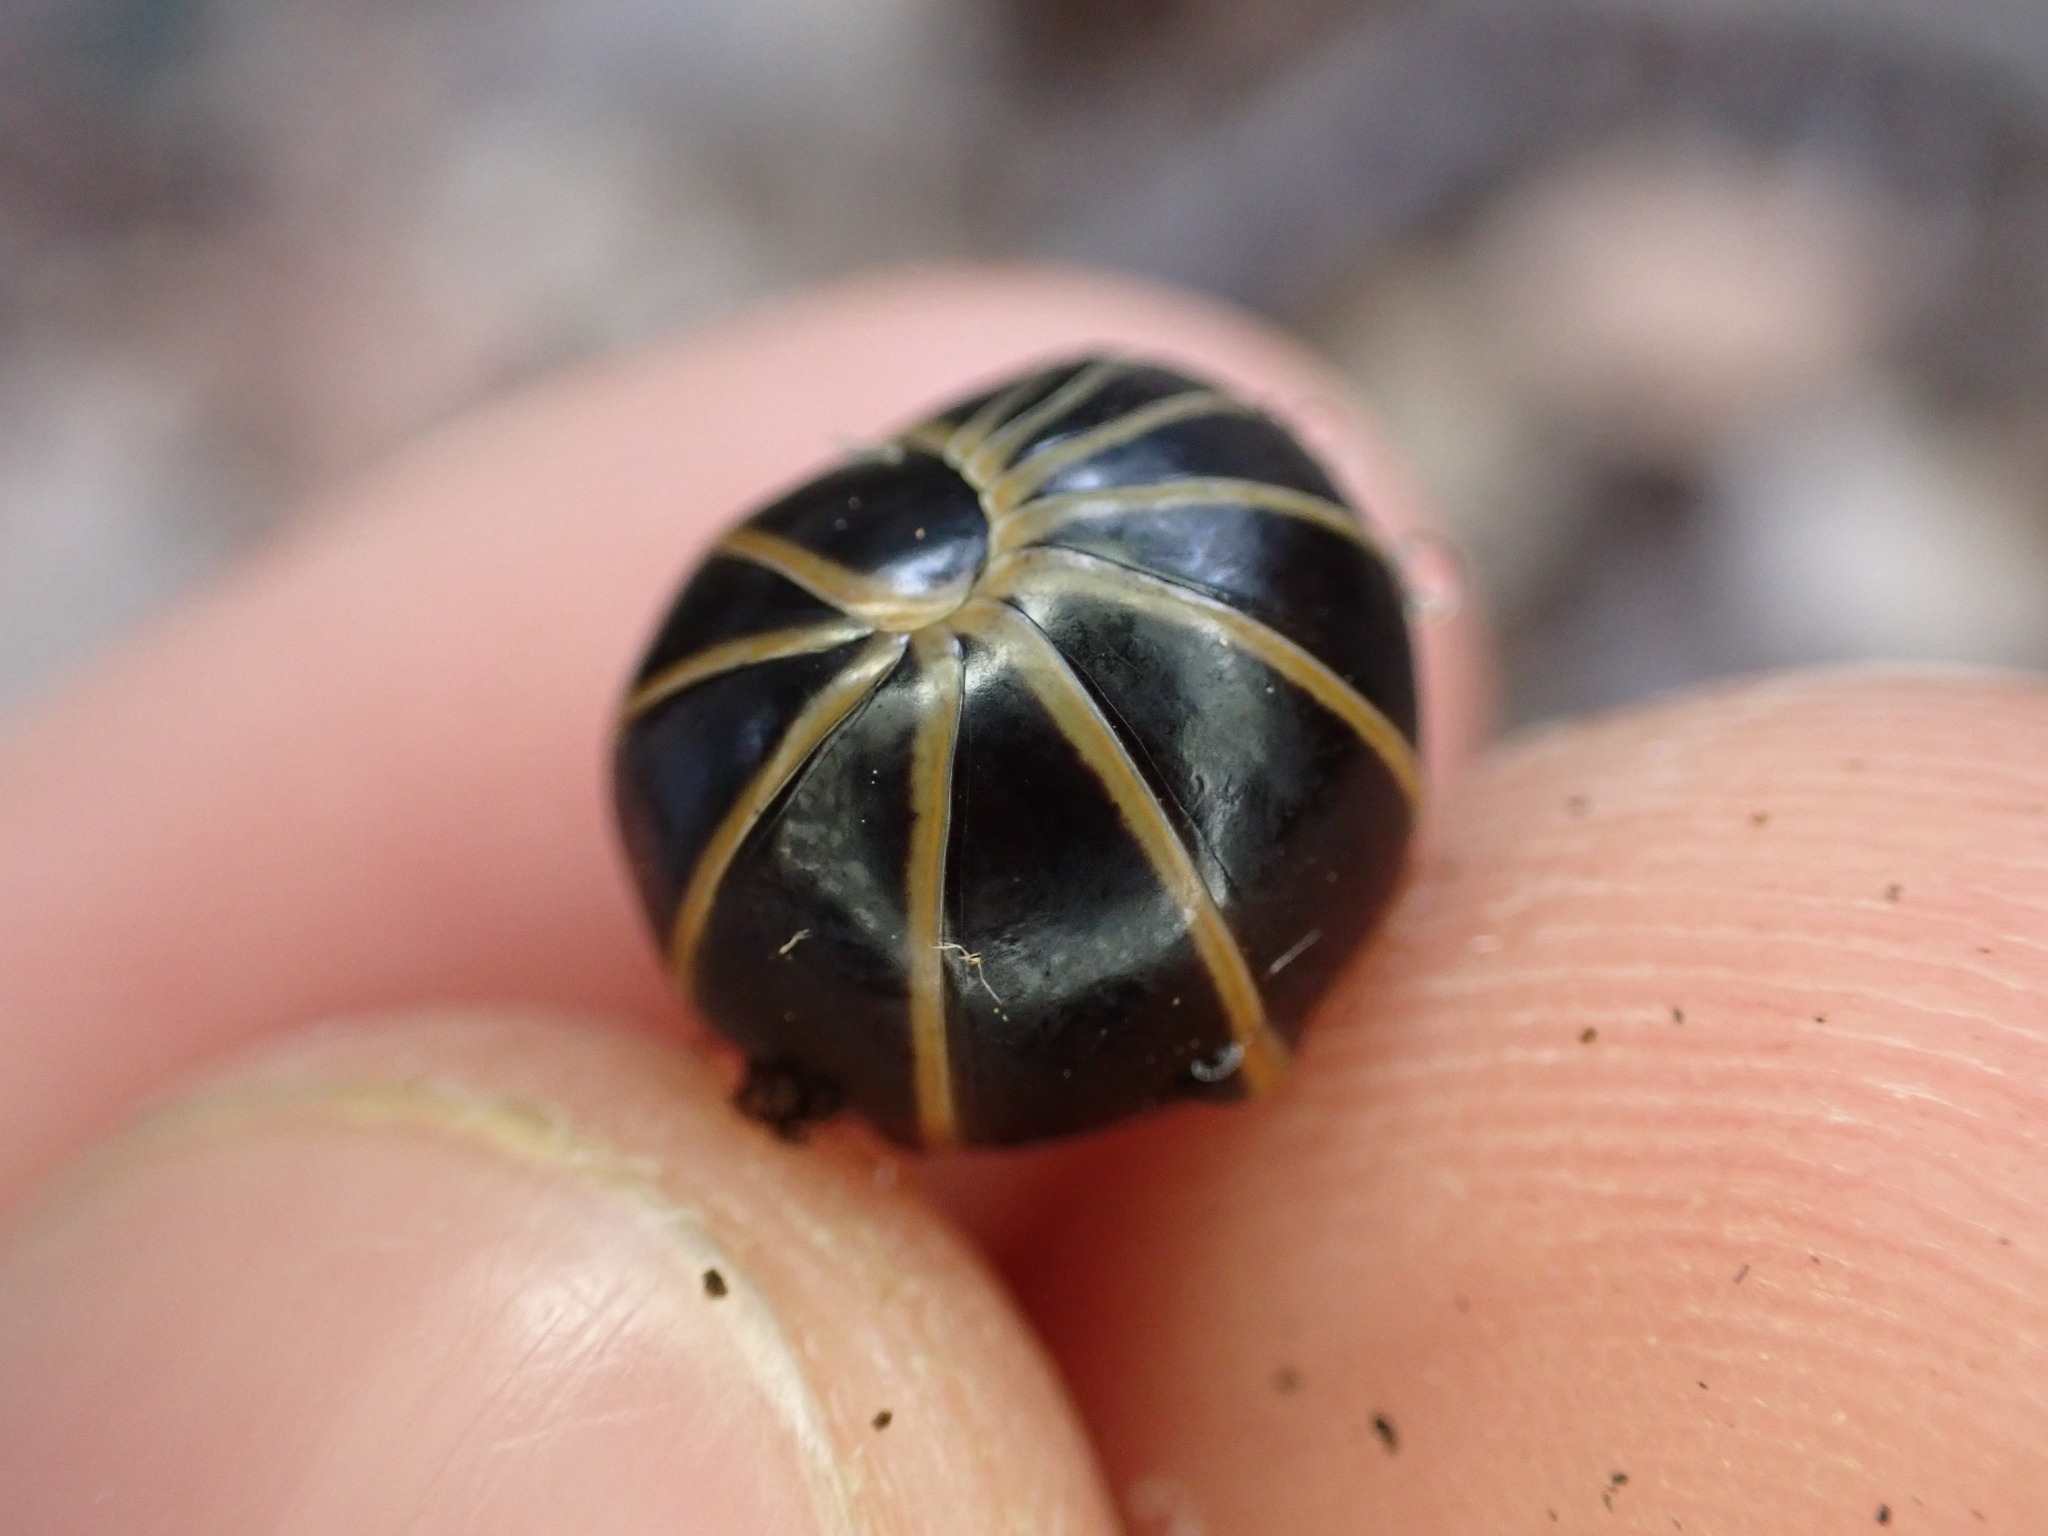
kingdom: Animalia
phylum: Arthropoda
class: Diplopoda
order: Glomerida
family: Glomeridae
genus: Glomeris
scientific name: Glomeris marginata
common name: Bordered pill millipede
